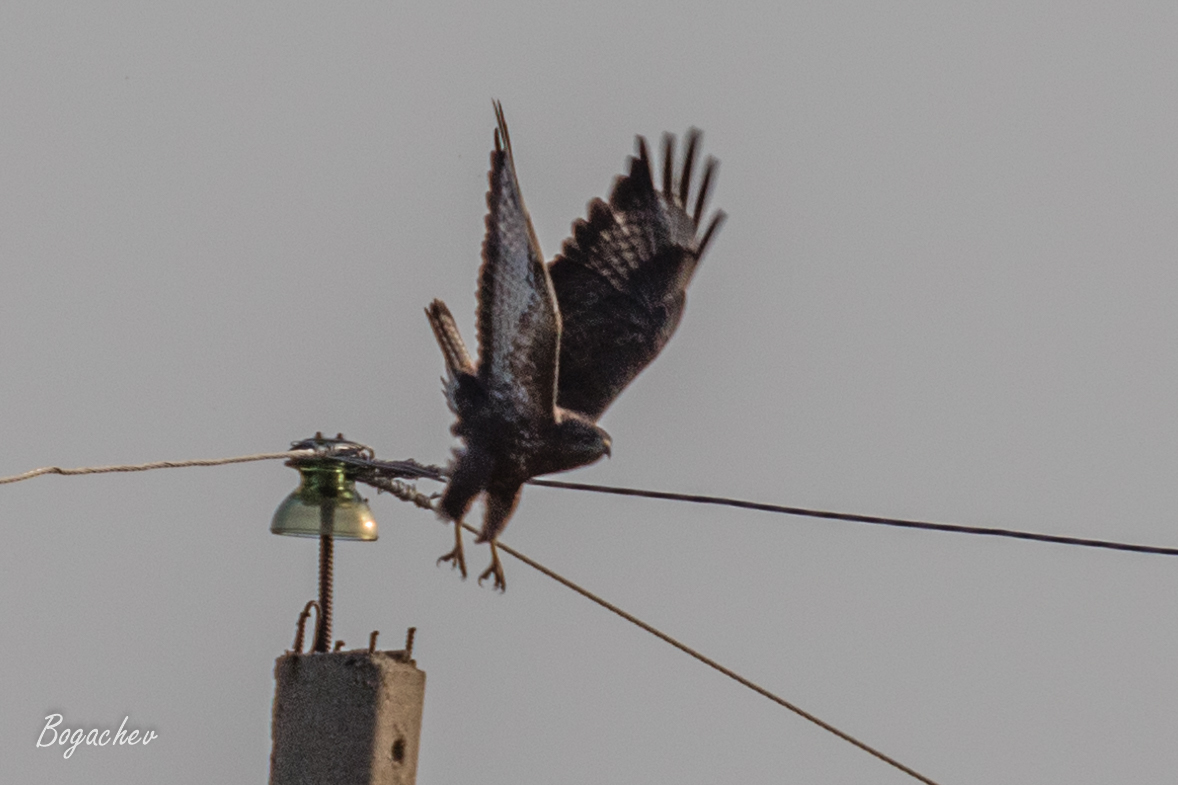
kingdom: Animalia
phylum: Chordata
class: Aves
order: Accipitriformes
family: Accipitridae
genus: Buteo
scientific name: Buteo buteo
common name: Common buzzard
